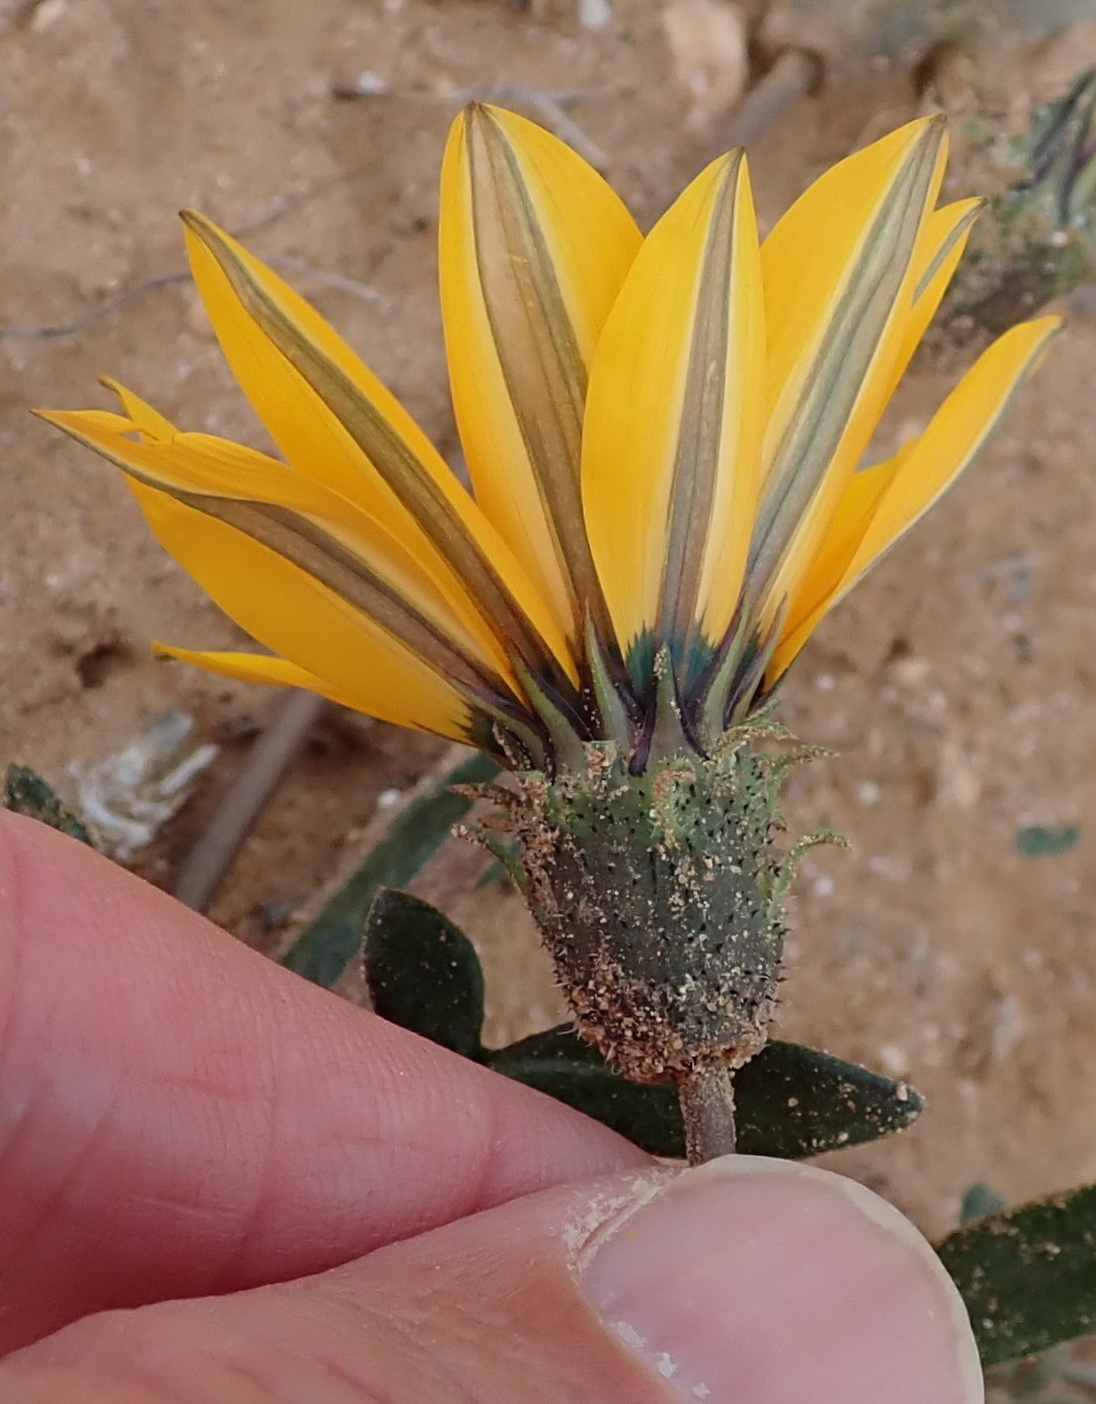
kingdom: Plantae
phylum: Tracheophyta
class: Magnoliopsida
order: Asterales
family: Asteraceae
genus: Gazania
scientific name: Gazania krebsiana
